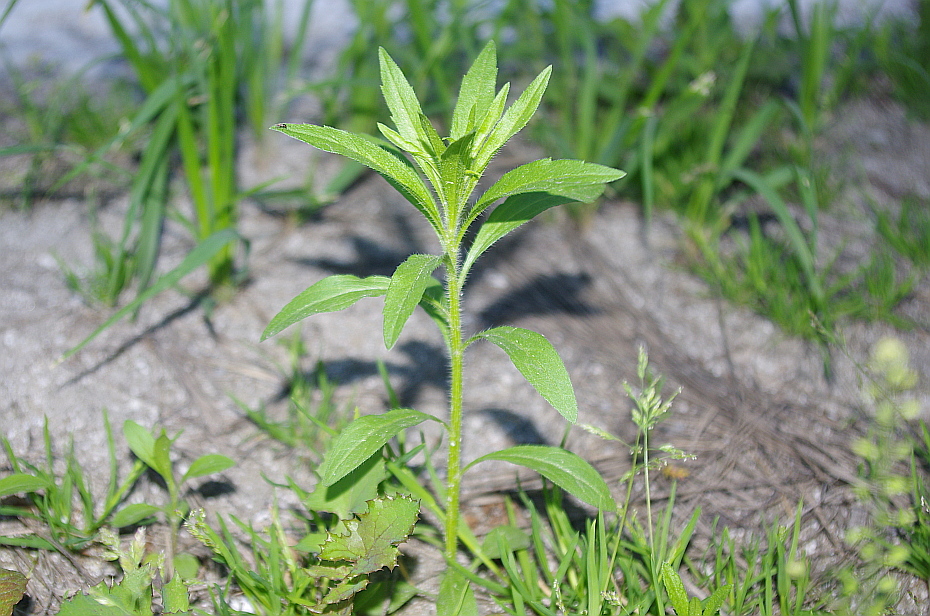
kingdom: Plantae
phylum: Tracheophyta
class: Magnoliopsida
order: Asterales
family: Asteraceae
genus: Erigeron
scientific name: Erigeron canadensis
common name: Canadian fleabane
